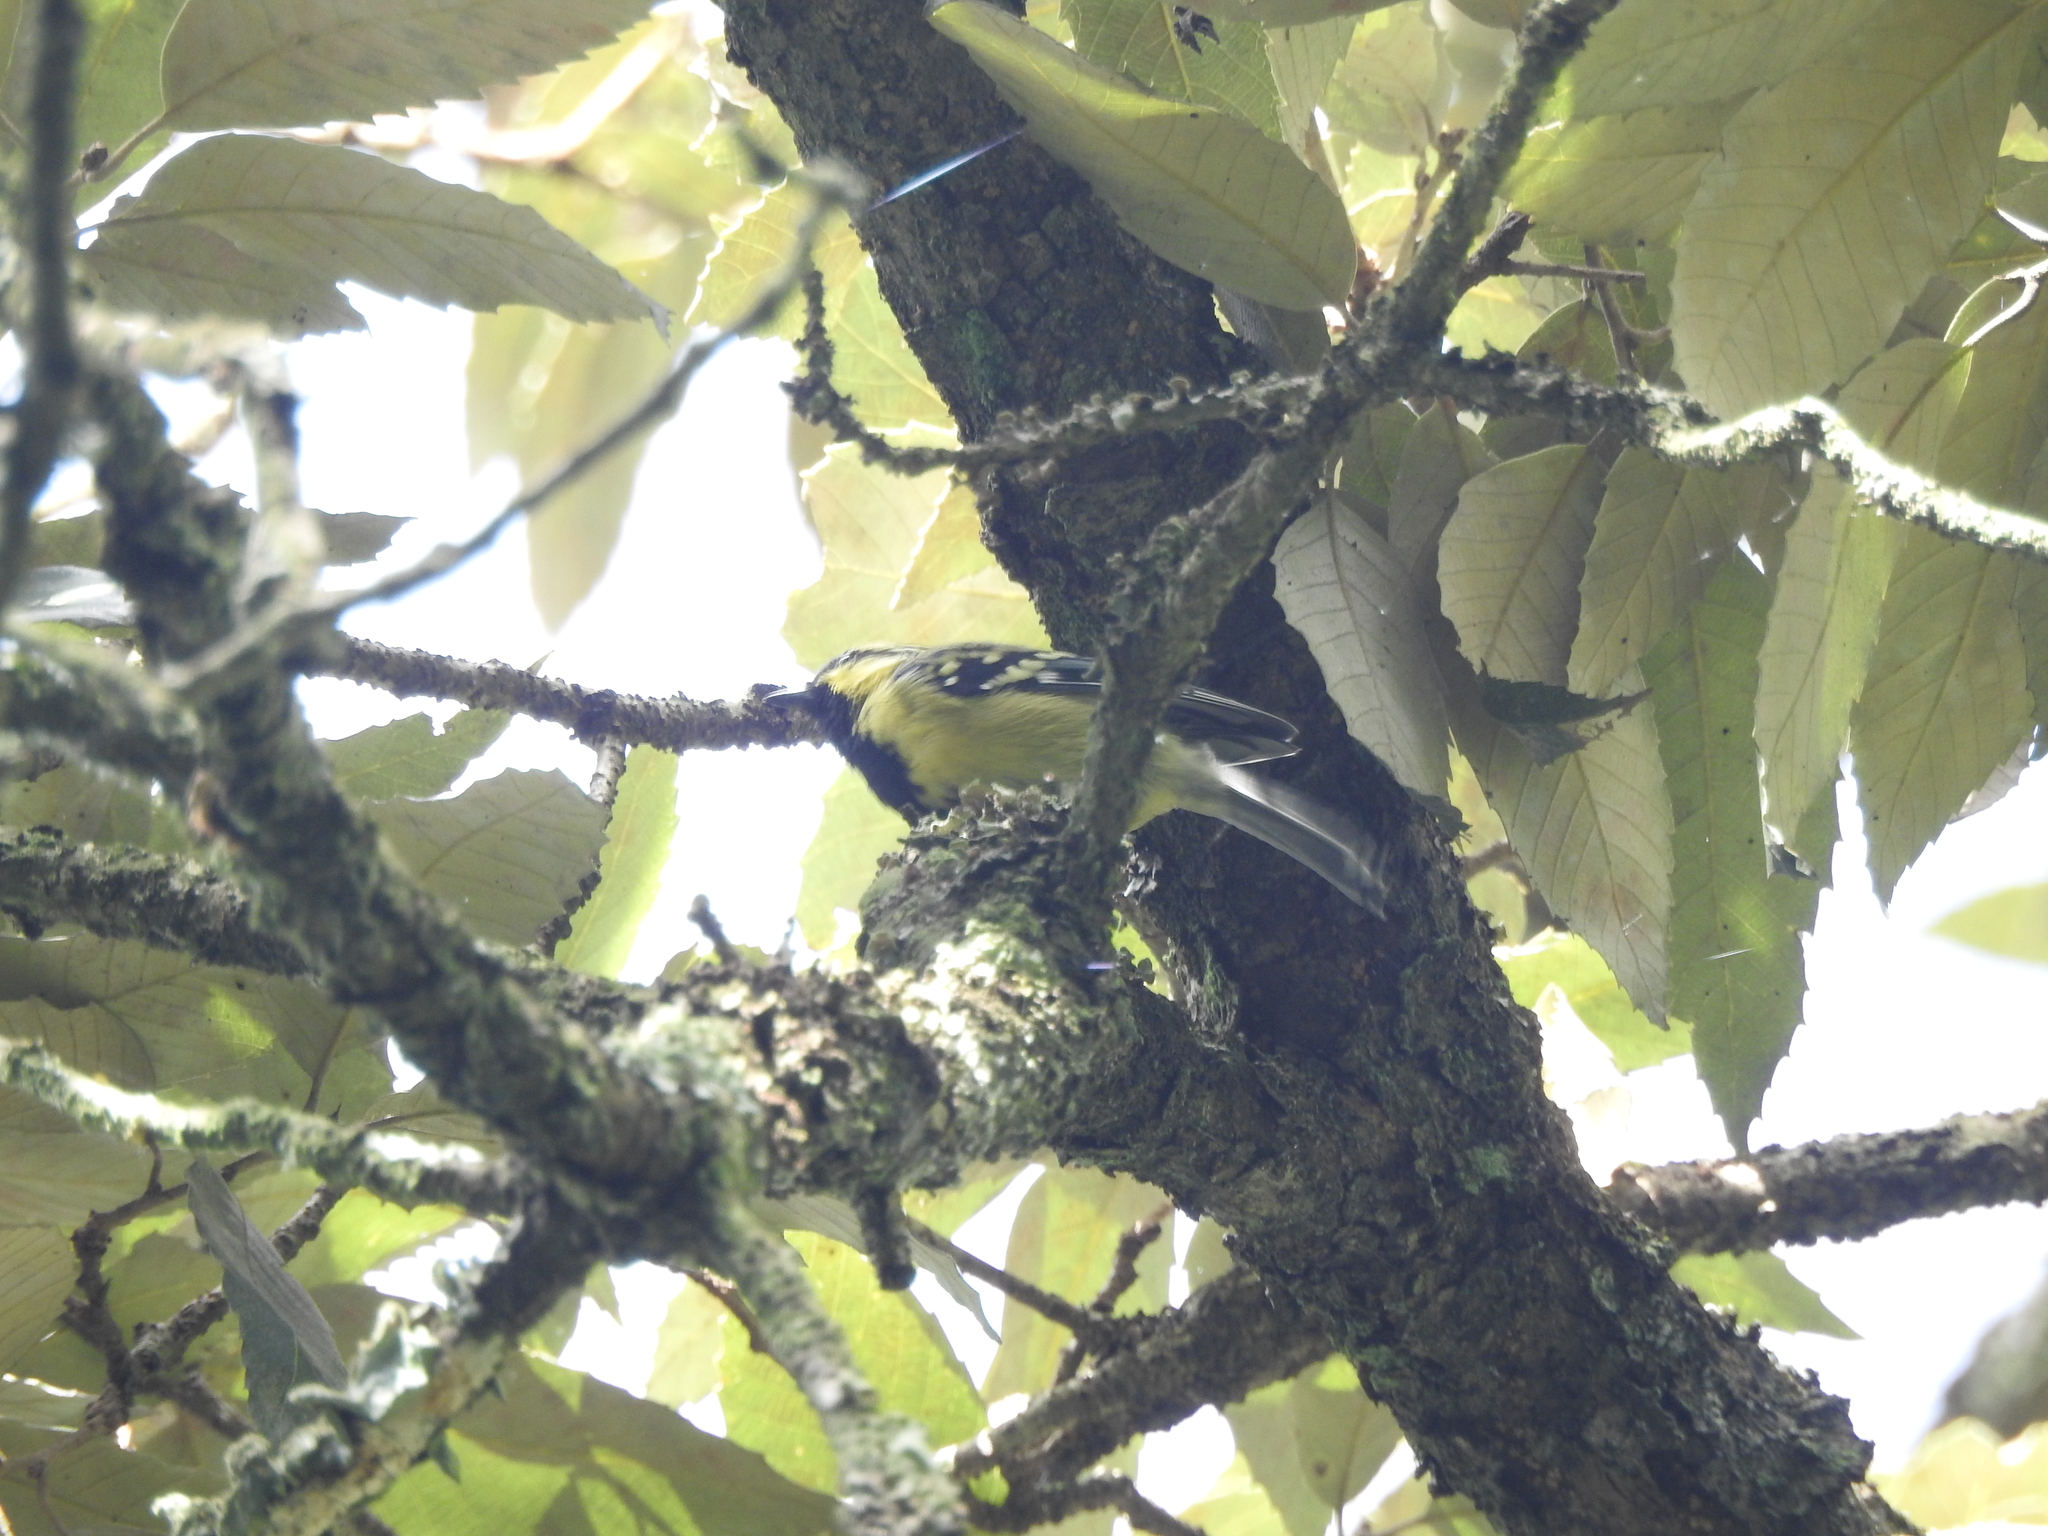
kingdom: Animalia
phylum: Chordata
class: Aves
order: Passeriformes
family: Paridae
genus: Parus
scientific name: Parus xanthogenys
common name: Black-lored tit
